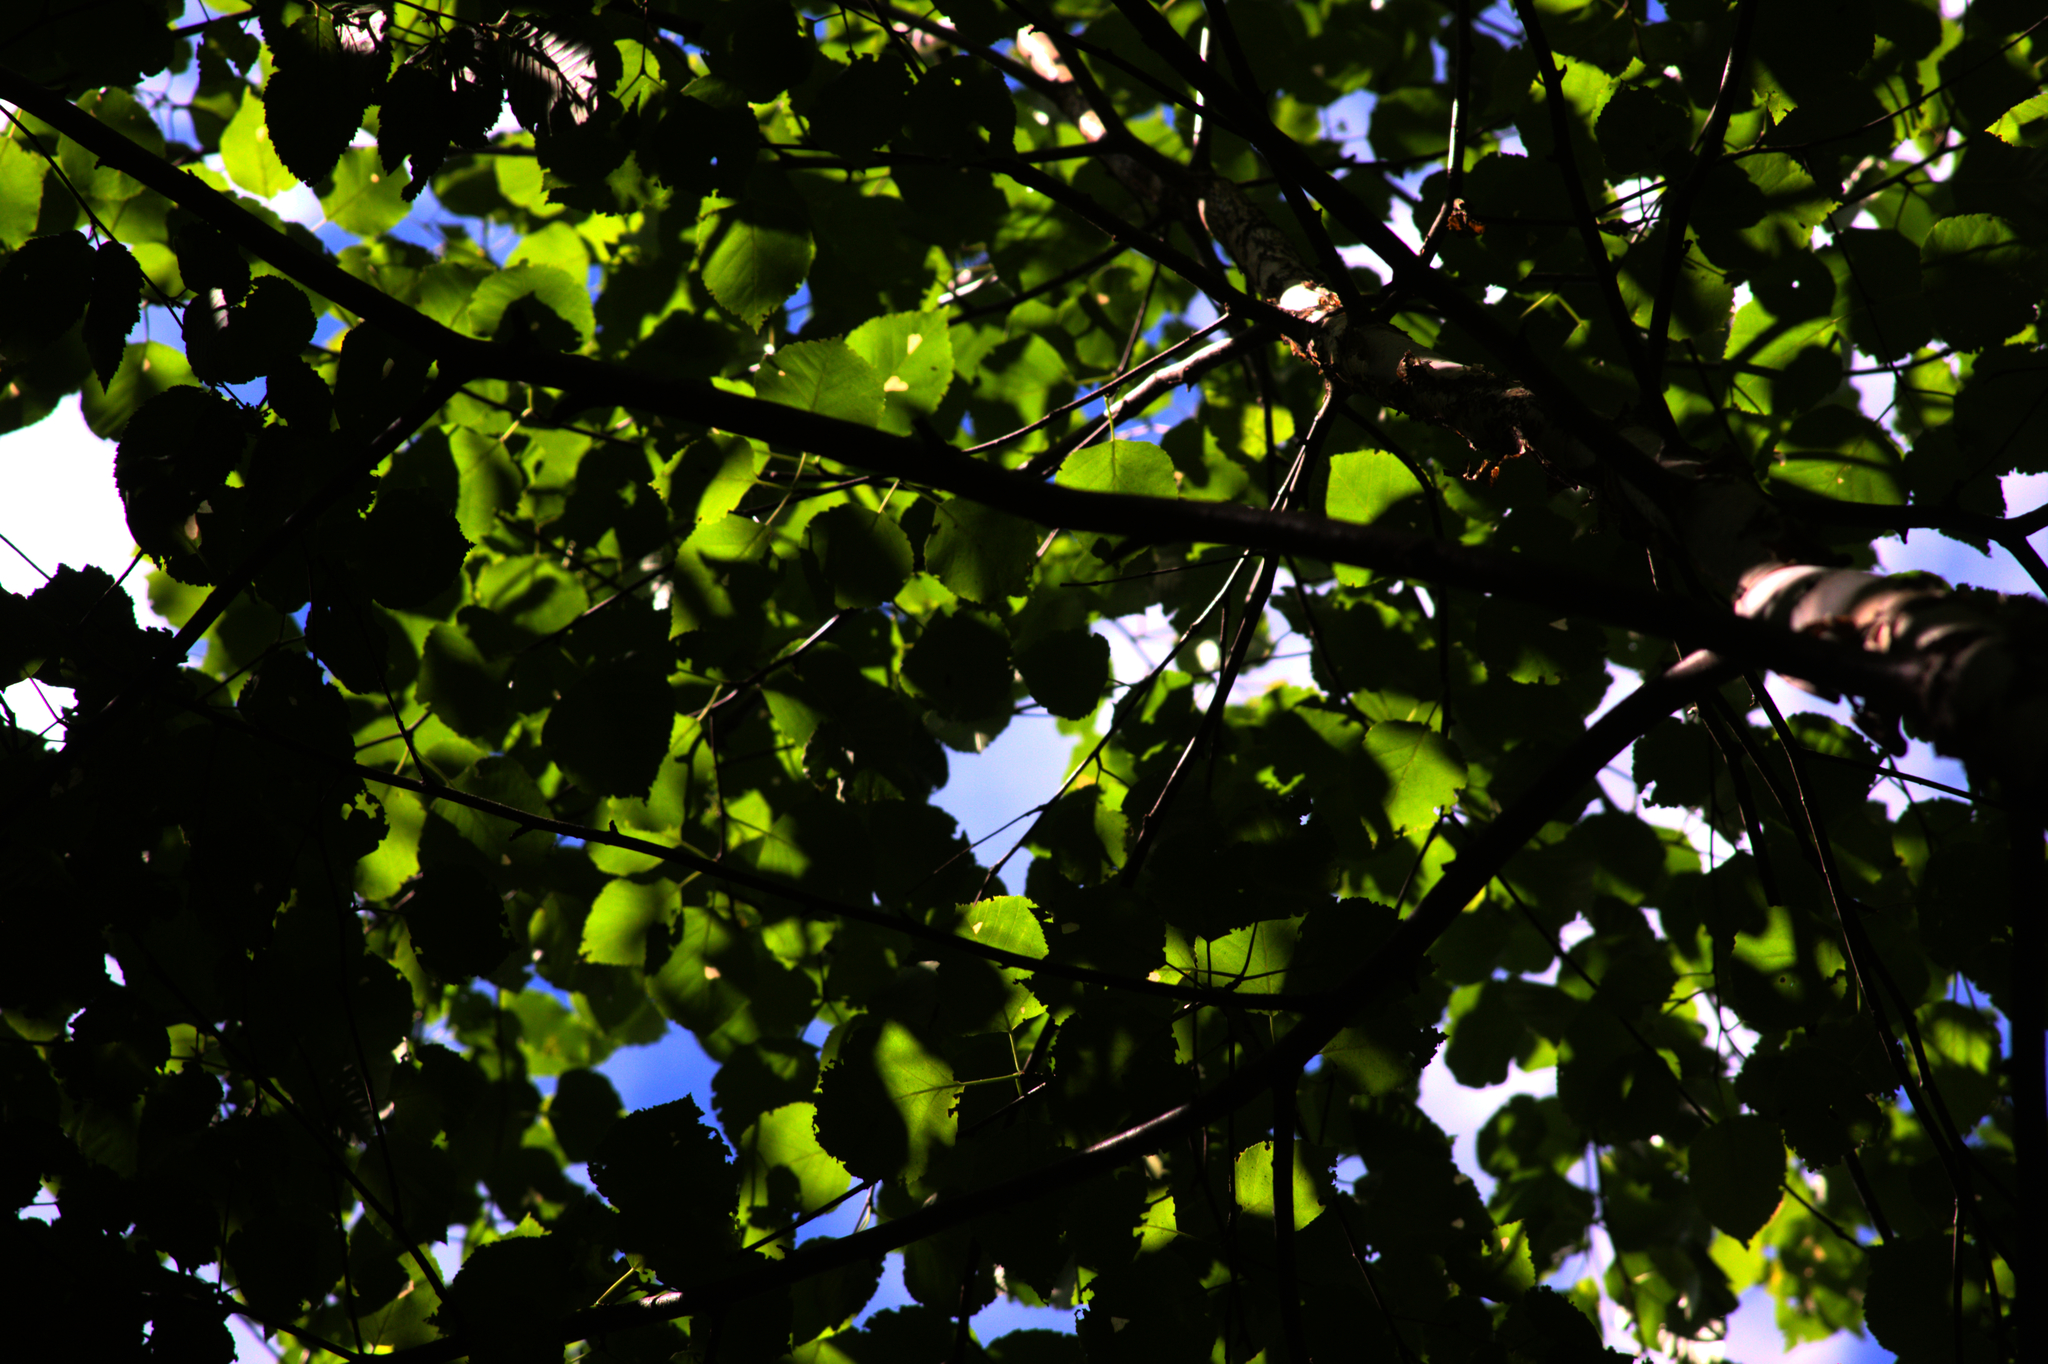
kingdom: Plantae
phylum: Tracheophyta
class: Magnoliopsida
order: Fagales
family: Betulaceae
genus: Betula
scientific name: Betula papyrifera
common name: Paper birch
